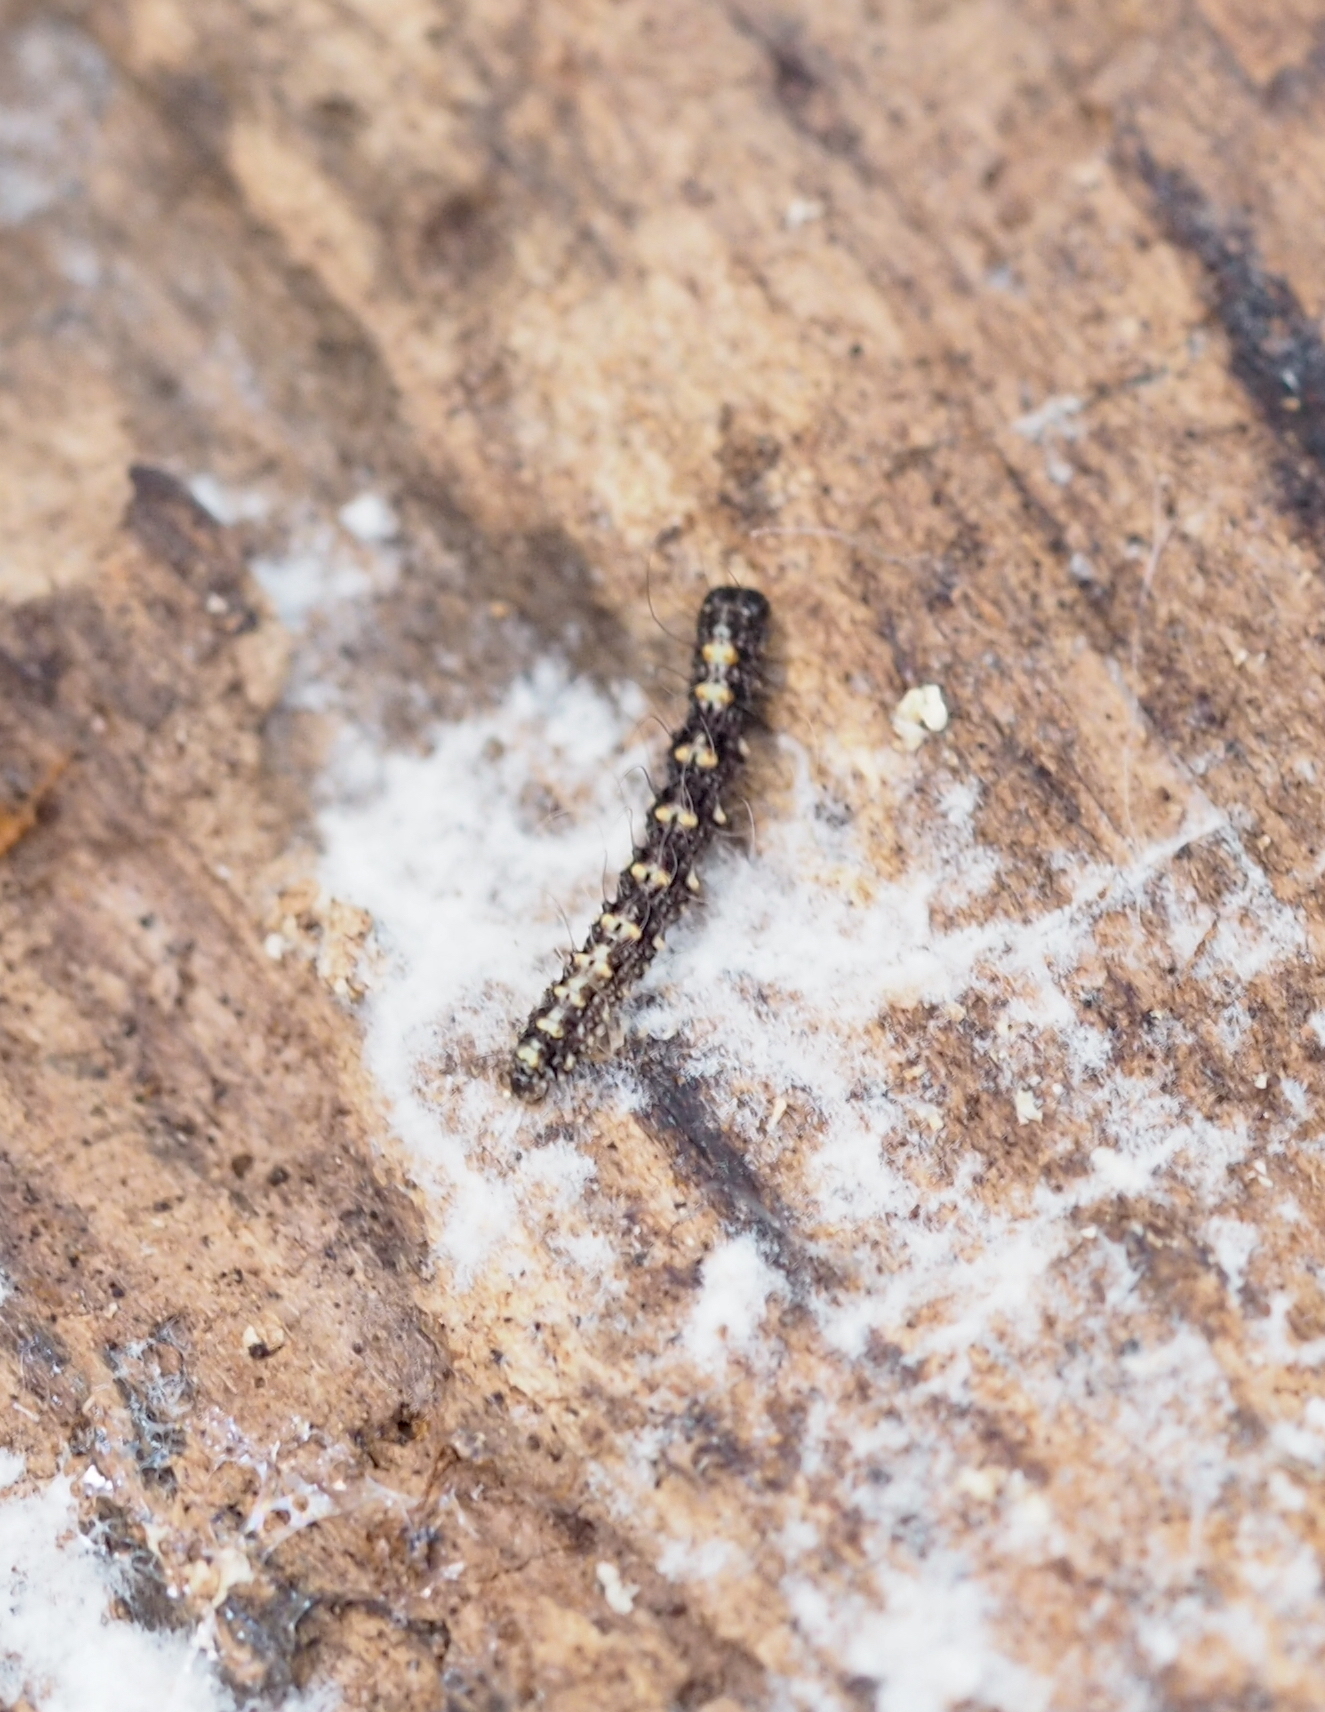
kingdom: Animalia
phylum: Arthropoda
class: Insecta
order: Lepidoptera
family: Erebidae
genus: Parascotia
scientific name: Parascotia fuliginaria
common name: Waved black
